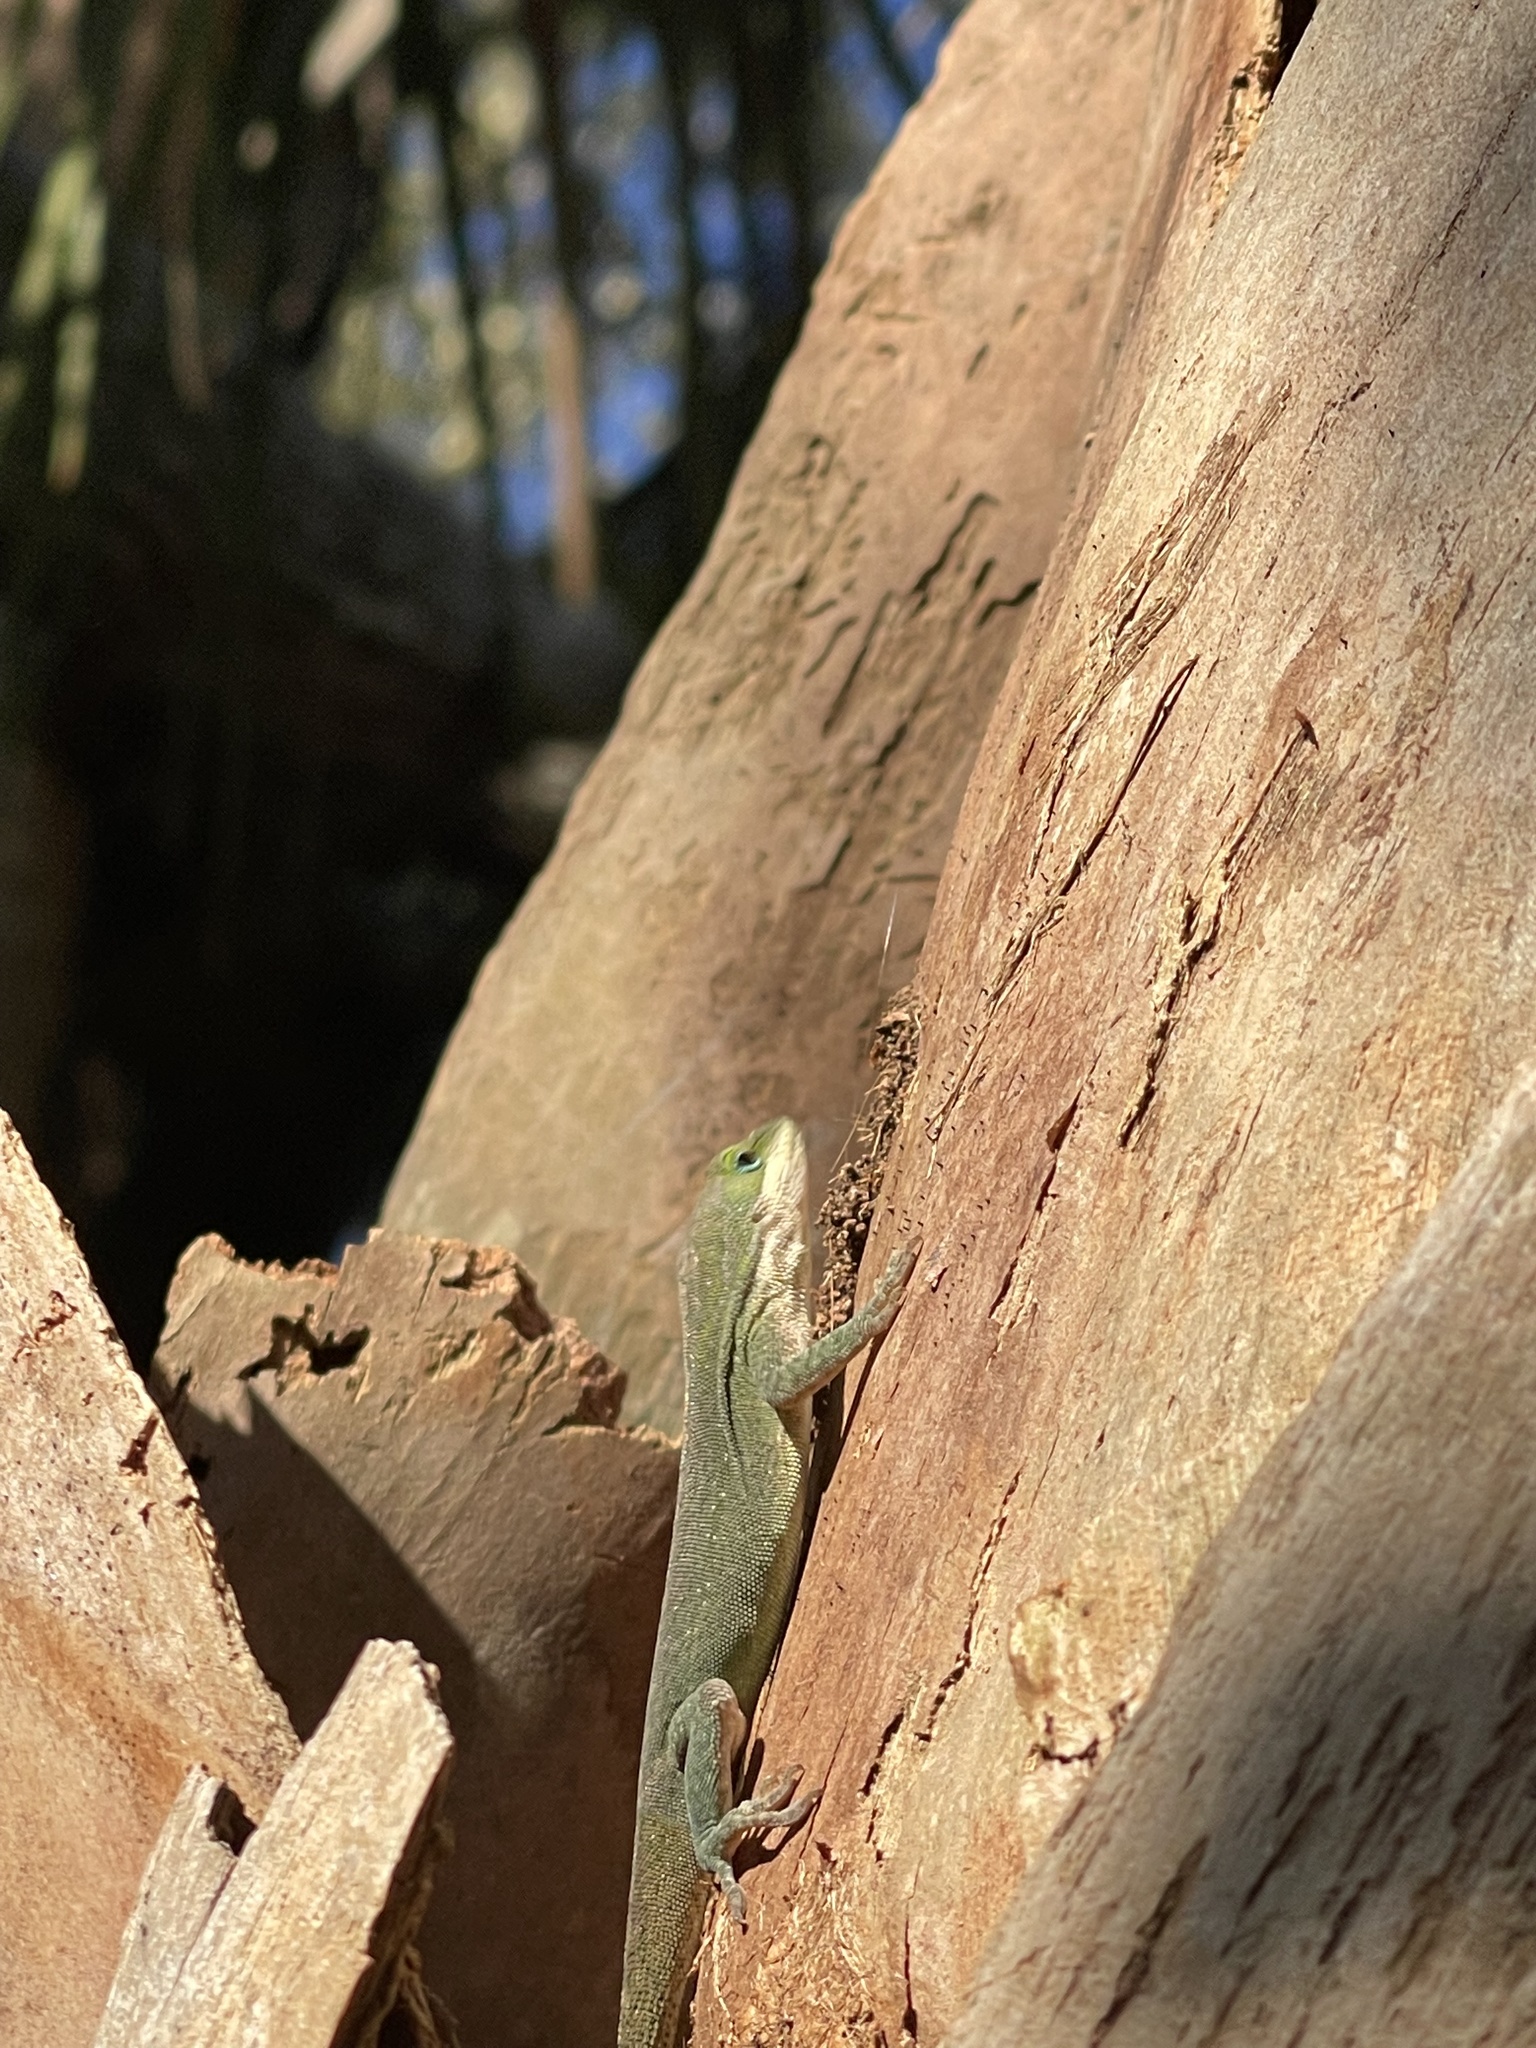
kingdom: Animalia
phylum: Chordata
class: Squamata
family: Dactyloidae
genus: Anolis
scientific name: Anolis carolinensis
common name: Green anole
